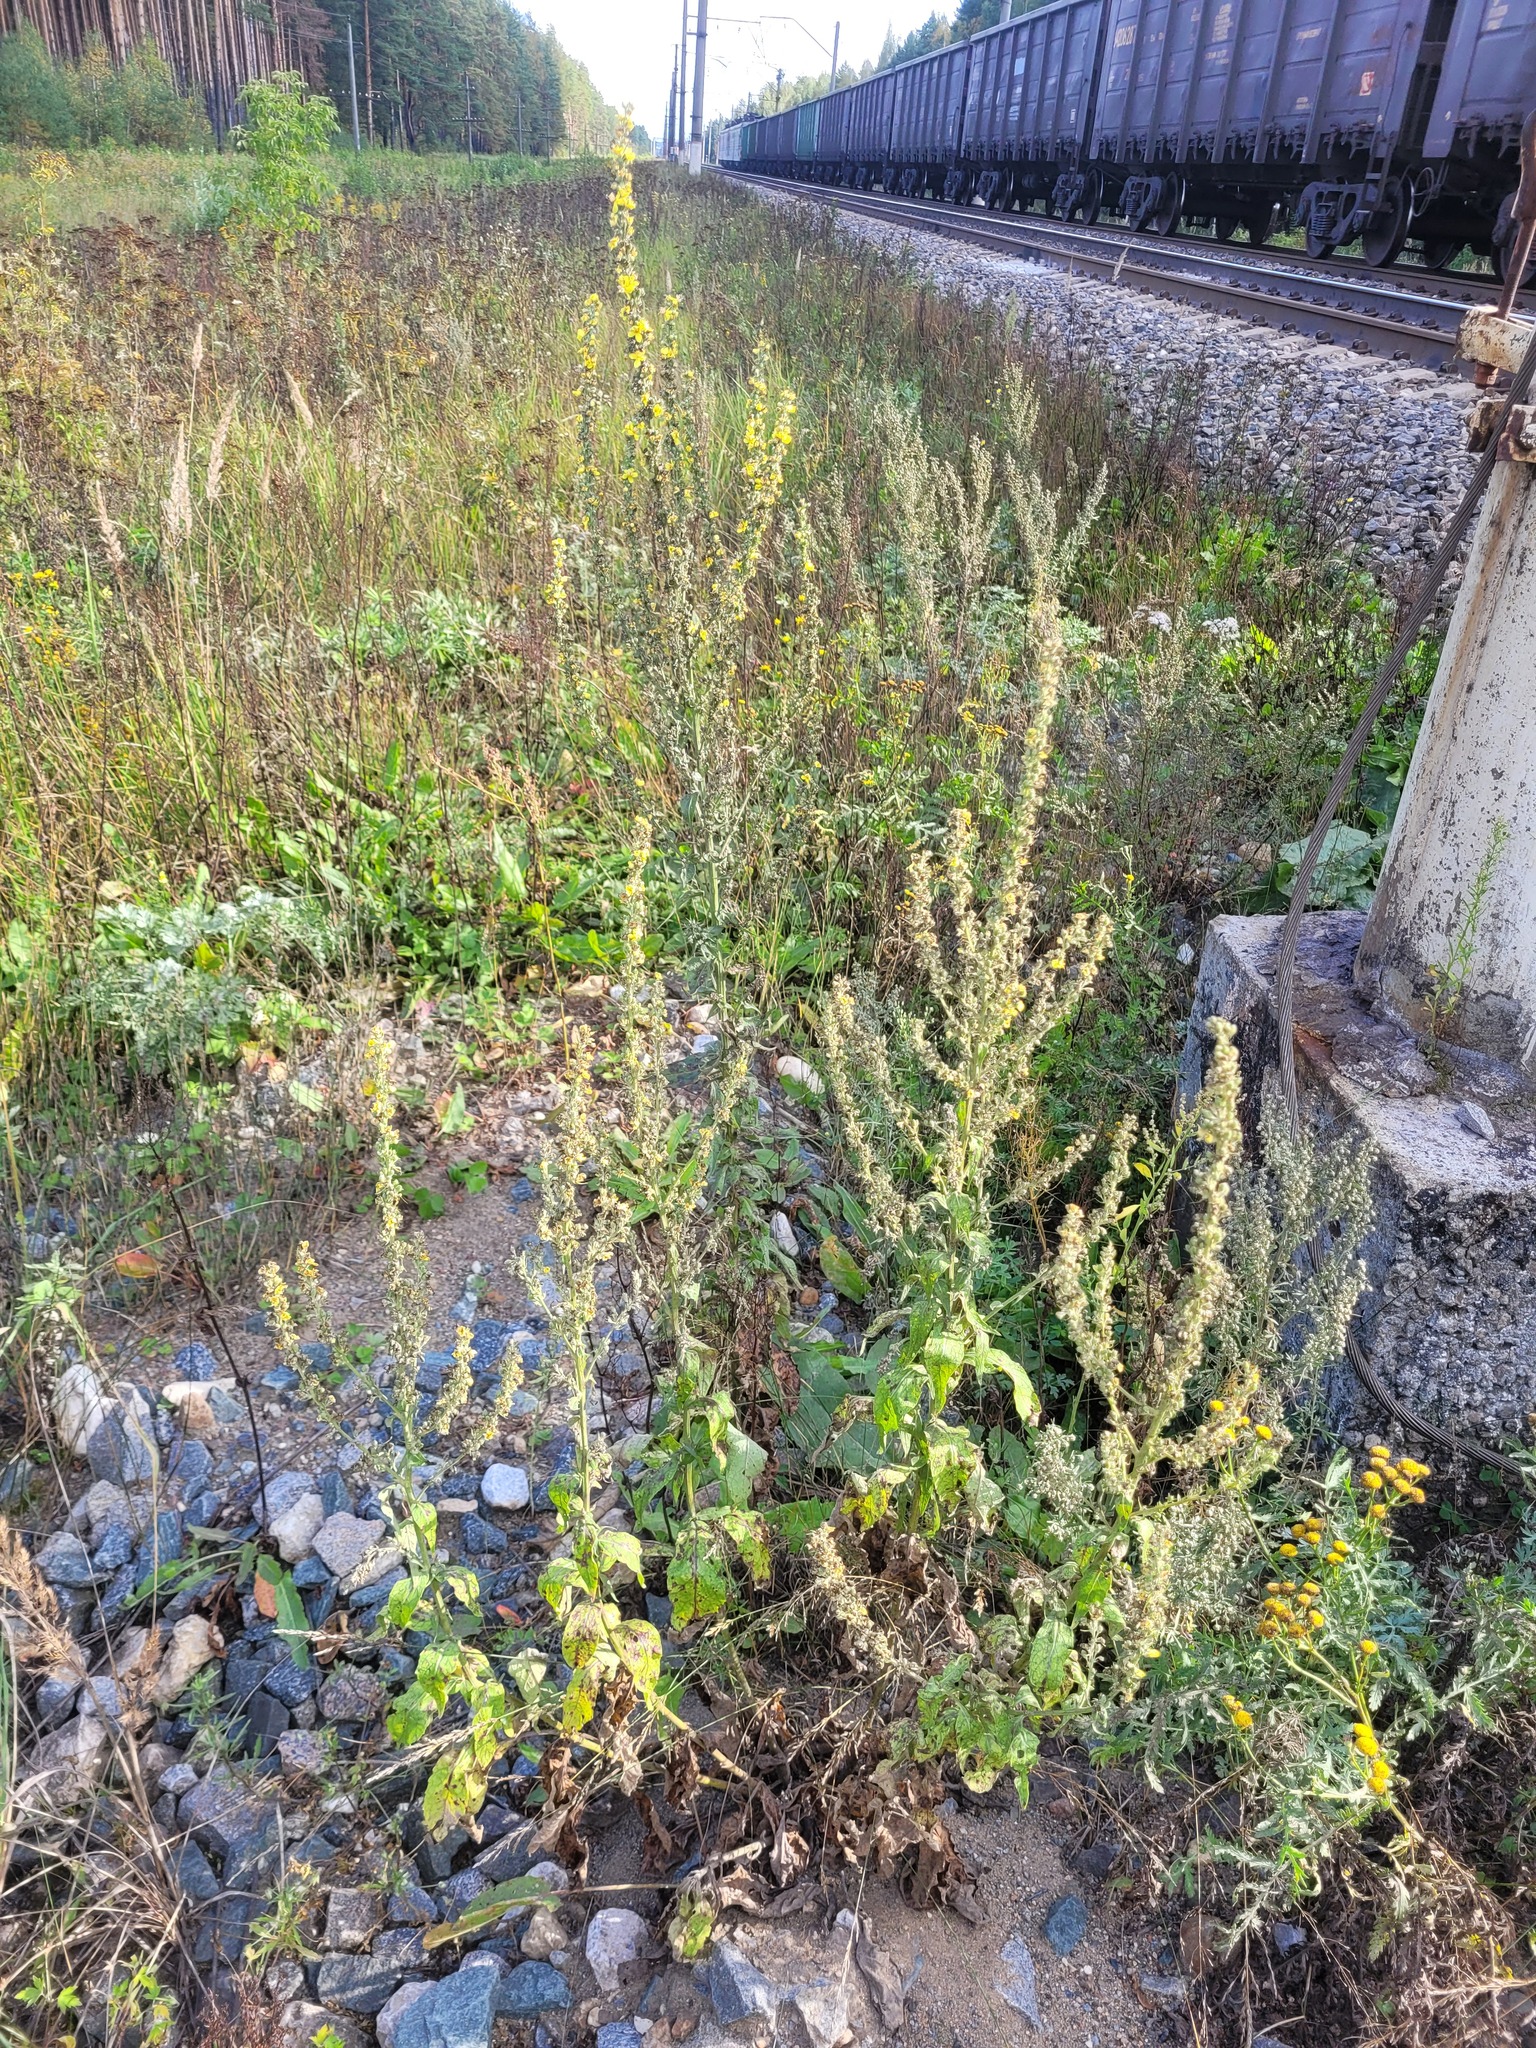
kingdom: Plantae
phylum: Tracheophyta
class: Magnoliopsida
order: Lamiales
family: Scrophulariaceae
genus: Verbascum
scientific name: Verbascum lychnitis
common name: White mullein
